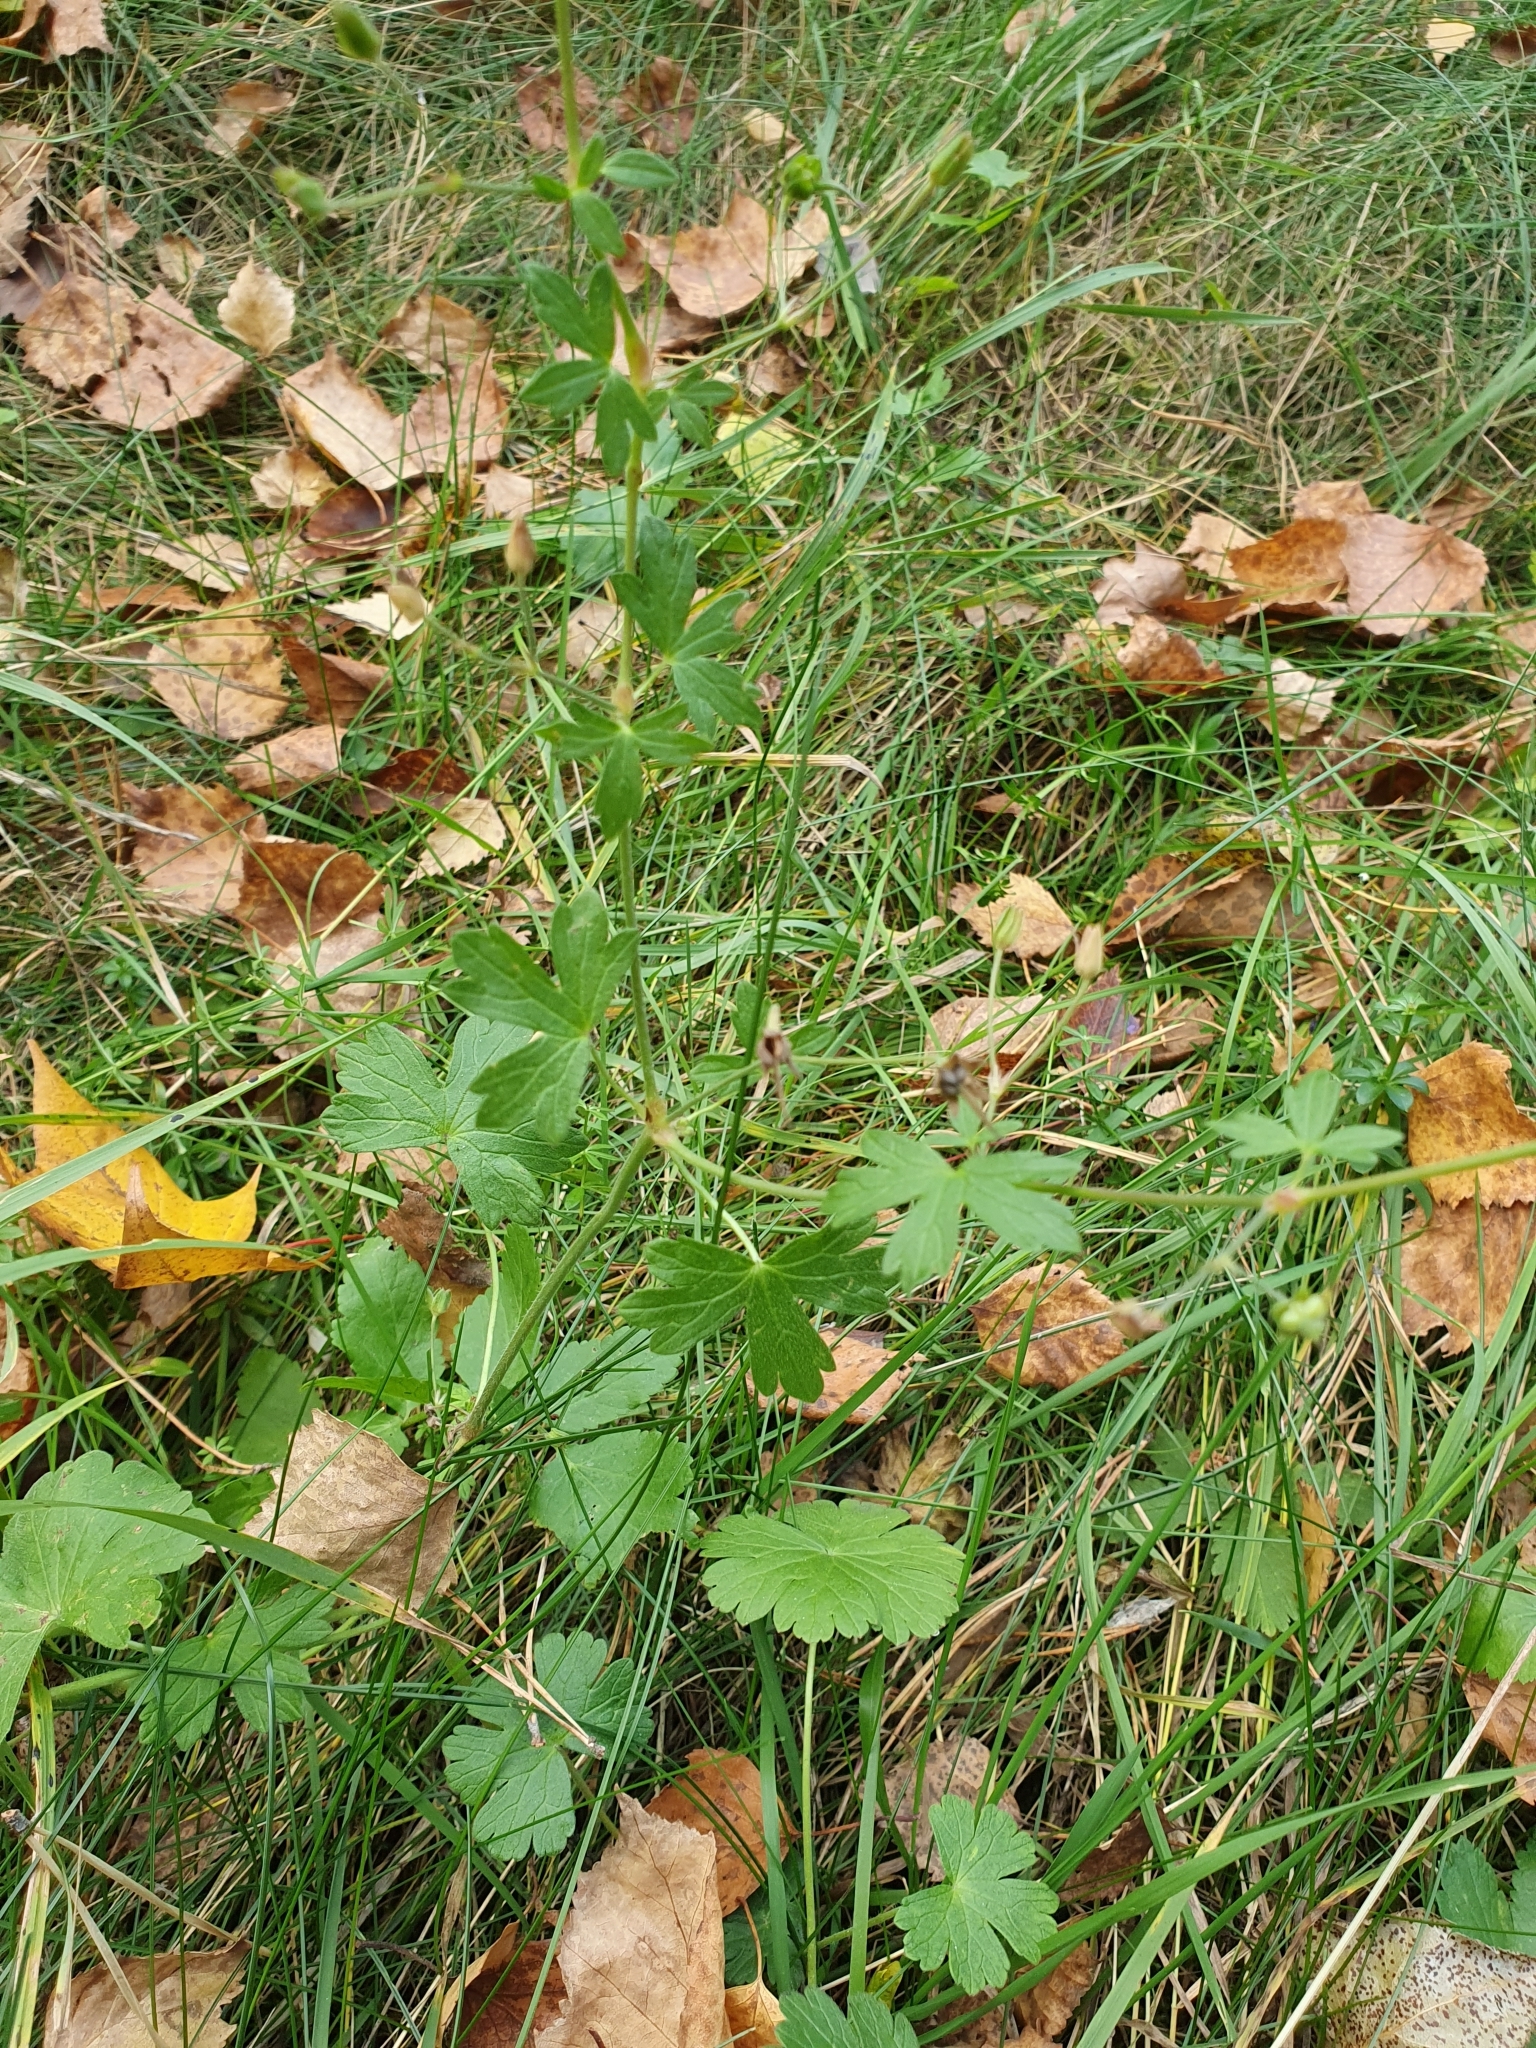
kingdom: Plantae
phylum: Tracheophyta
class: Magnoliopsida
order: Geraniales
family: Geraniaceae
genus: Geranium
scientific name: Geranium pyrenaicum
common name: Hedgerow crane's-bill
